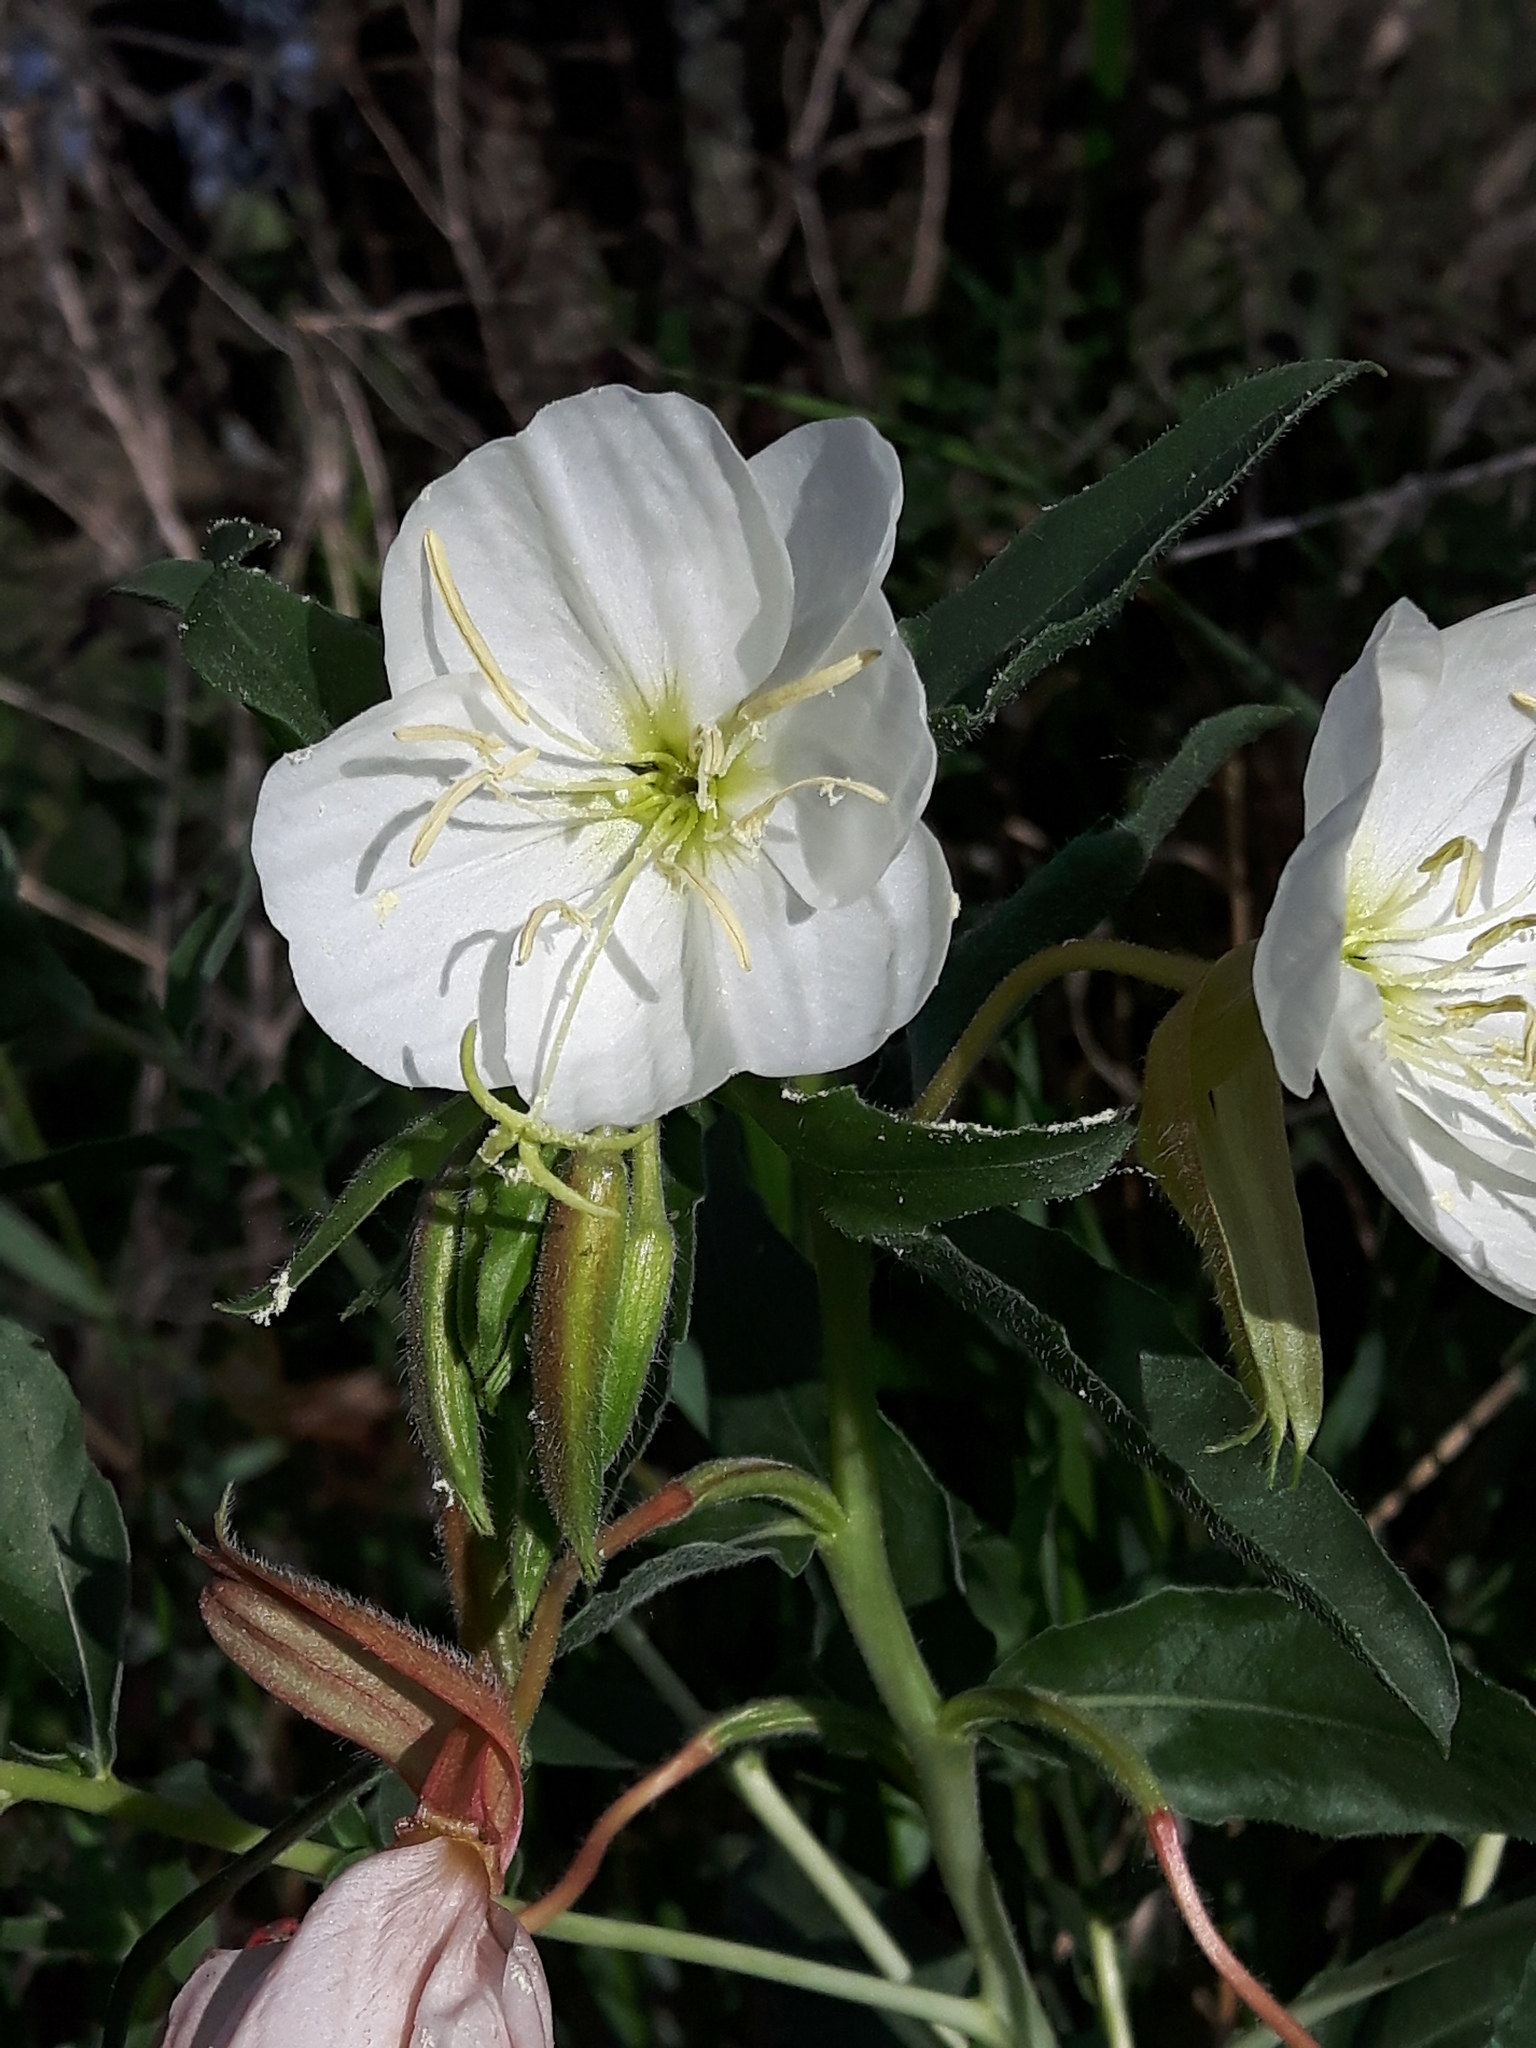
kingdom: Plantae
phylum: Tracheophyta
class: Magnoliopsida
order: Myrtales
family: Onagraceae
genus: Oenothera
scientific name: Oenothera nuttallii
